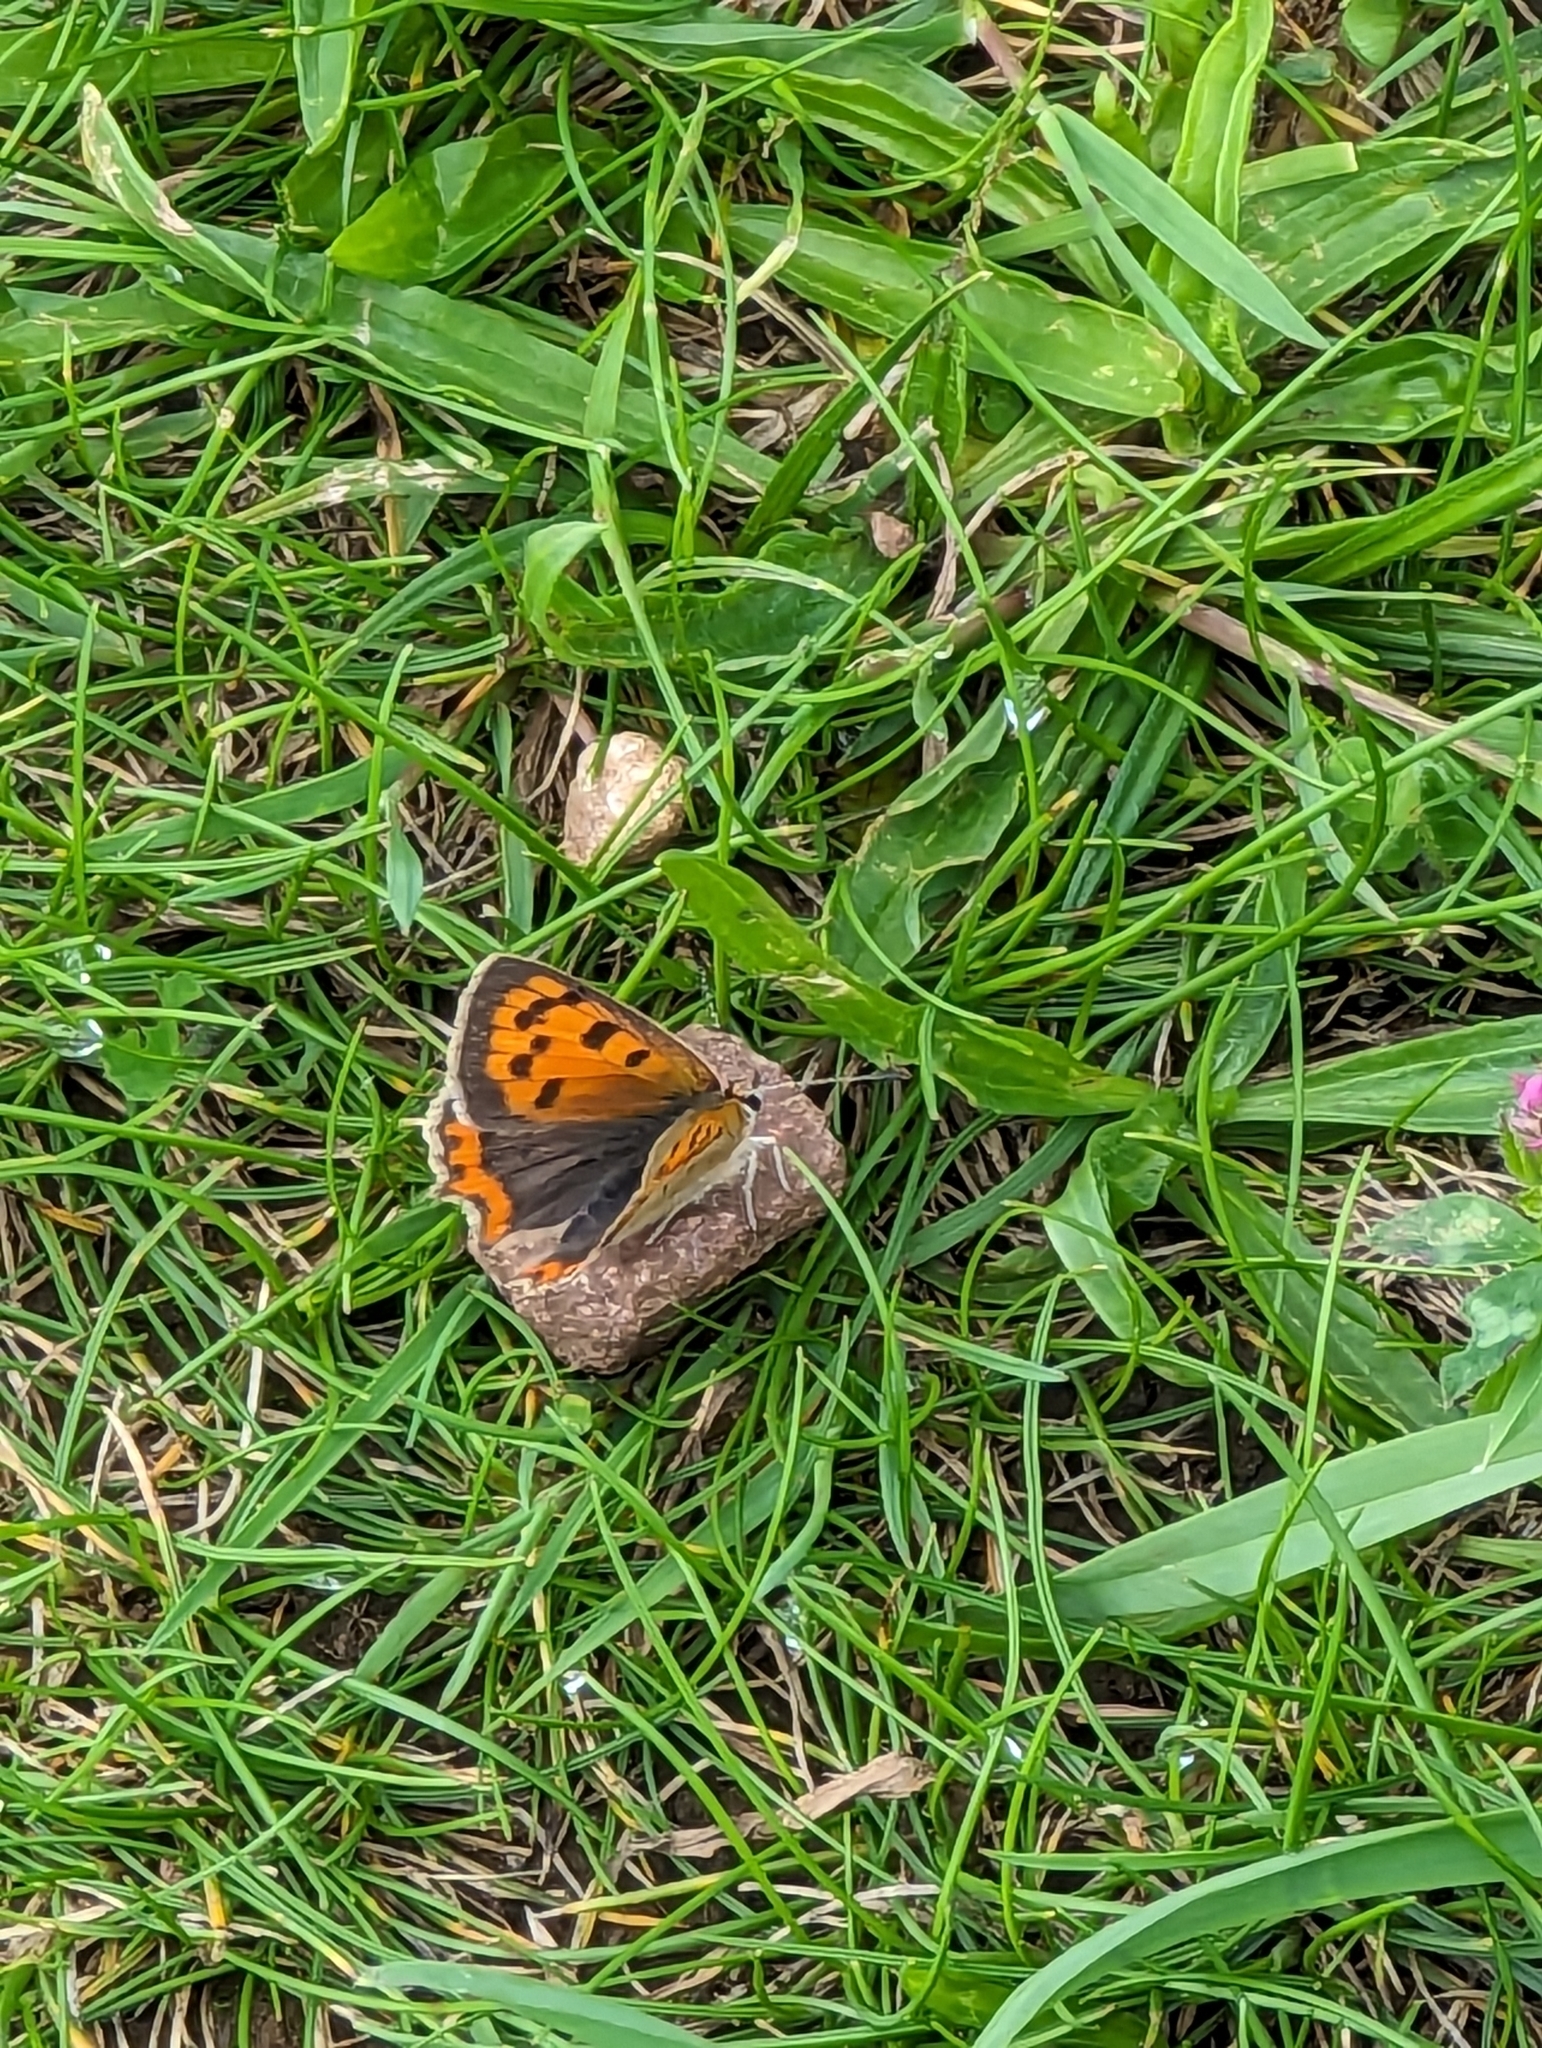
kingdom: Animalia
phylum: Arthropoda
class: Insecta
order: Lepidoptera
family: Lycaenidae
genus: Lycaena
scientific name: Lycaena phlaeas
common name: Small copper
